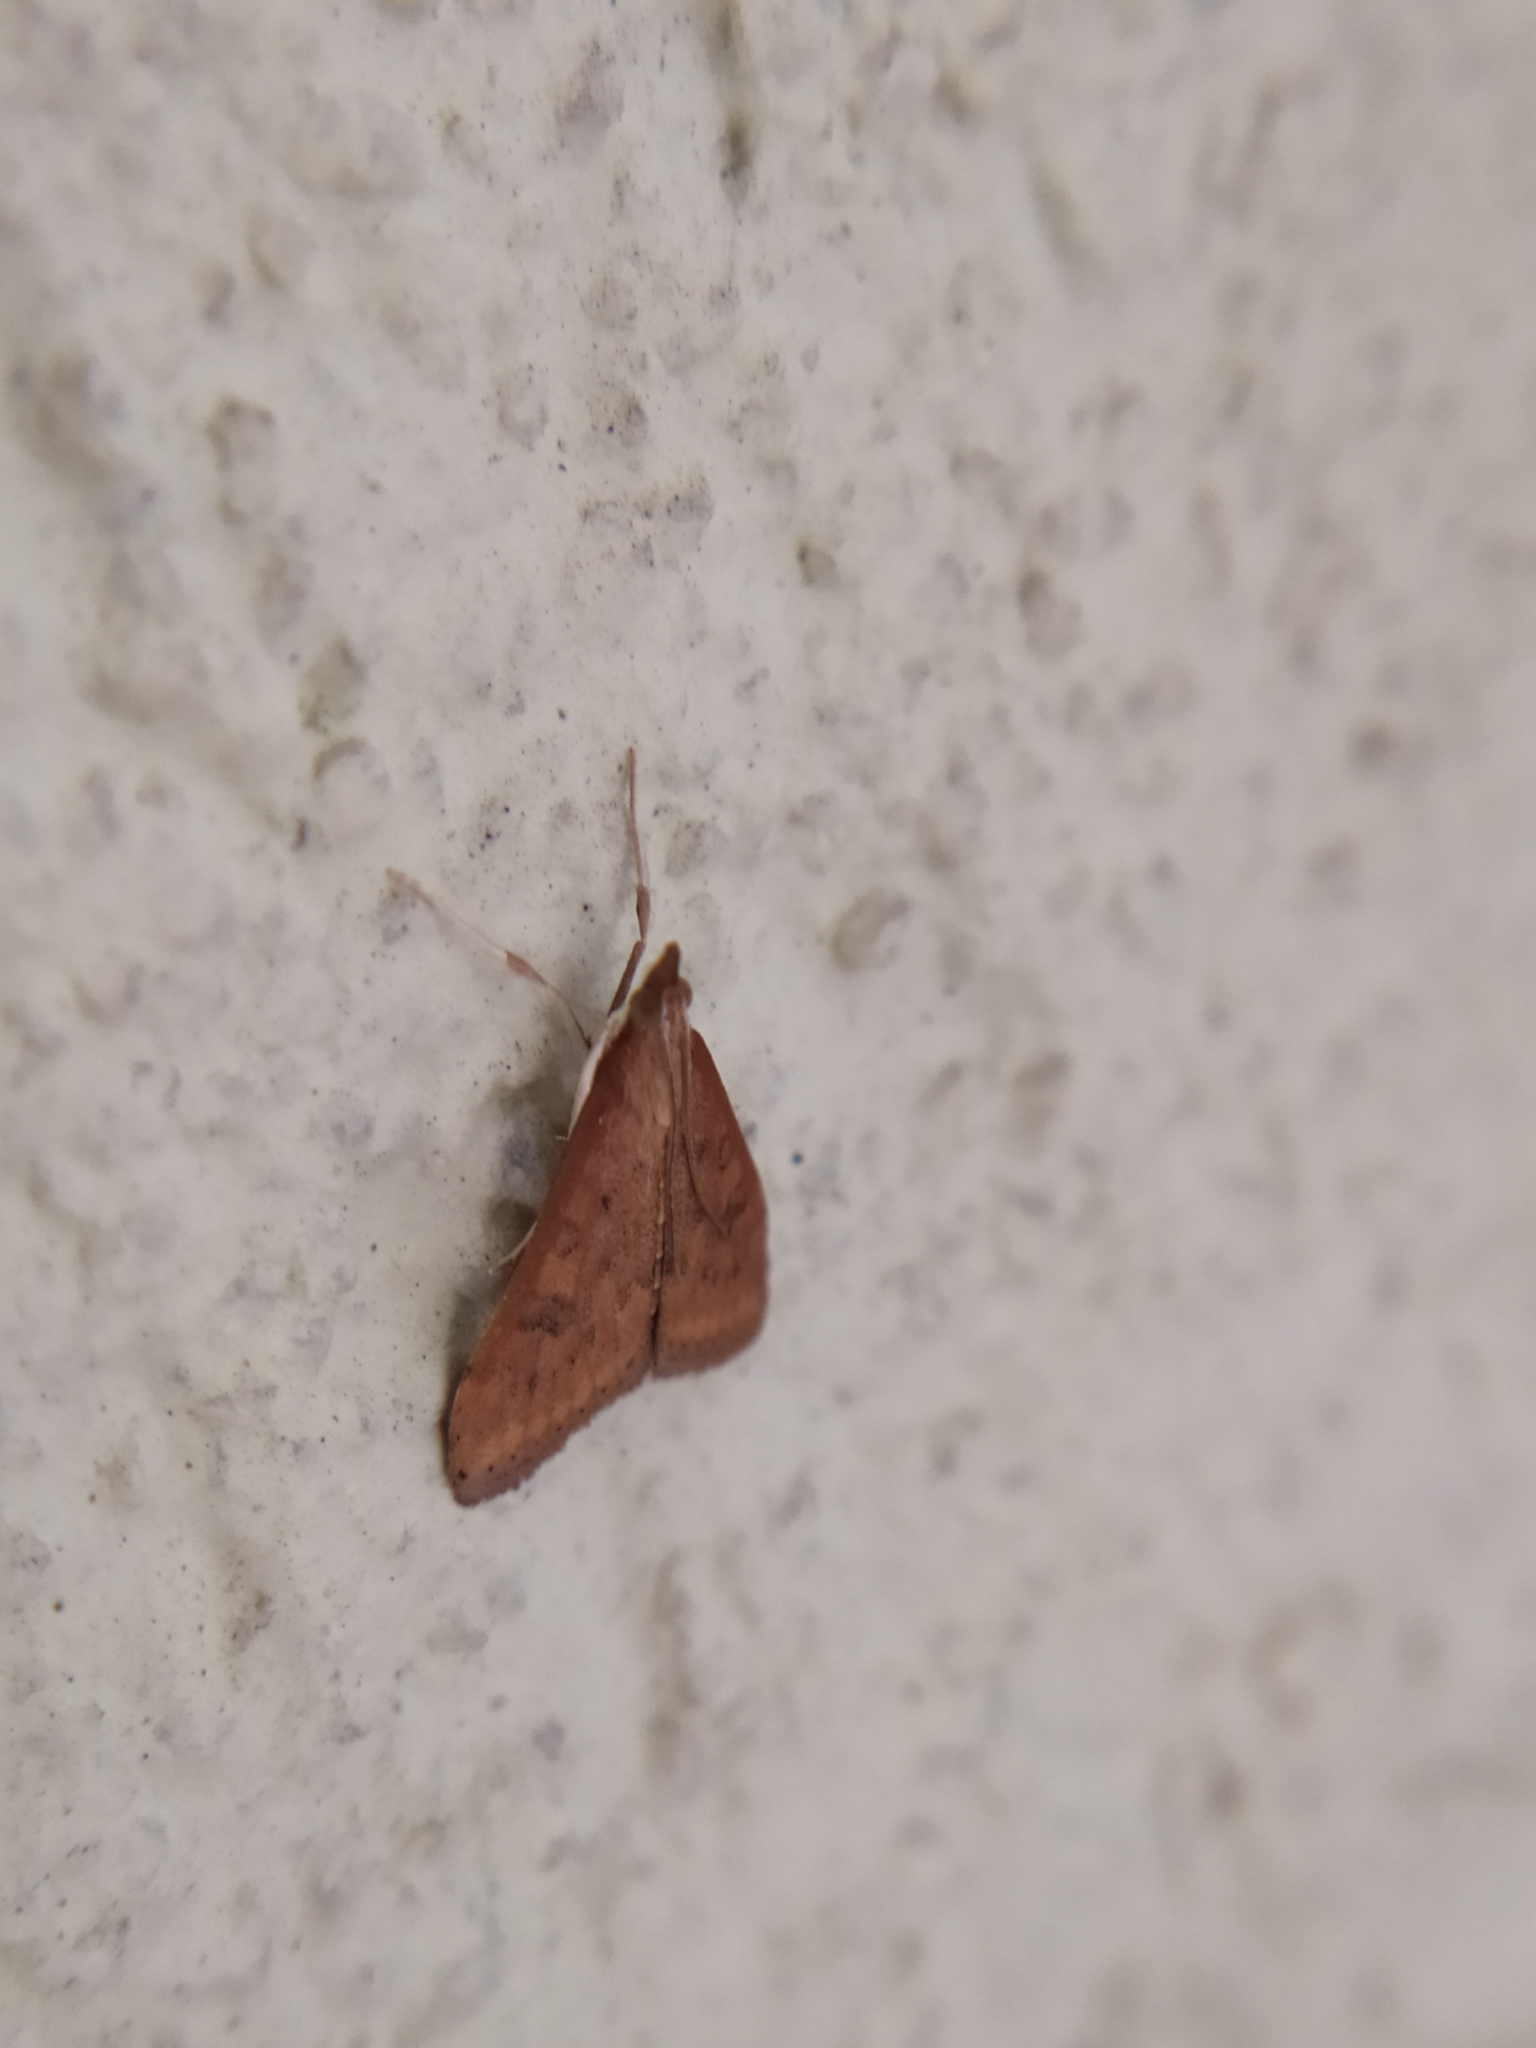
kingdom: Animalia
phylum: Arthropoda
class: Insecta
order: Lepidoptera
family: Crambidae
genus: Udea
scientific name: Udea ferrugalis
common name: Rusty dot
